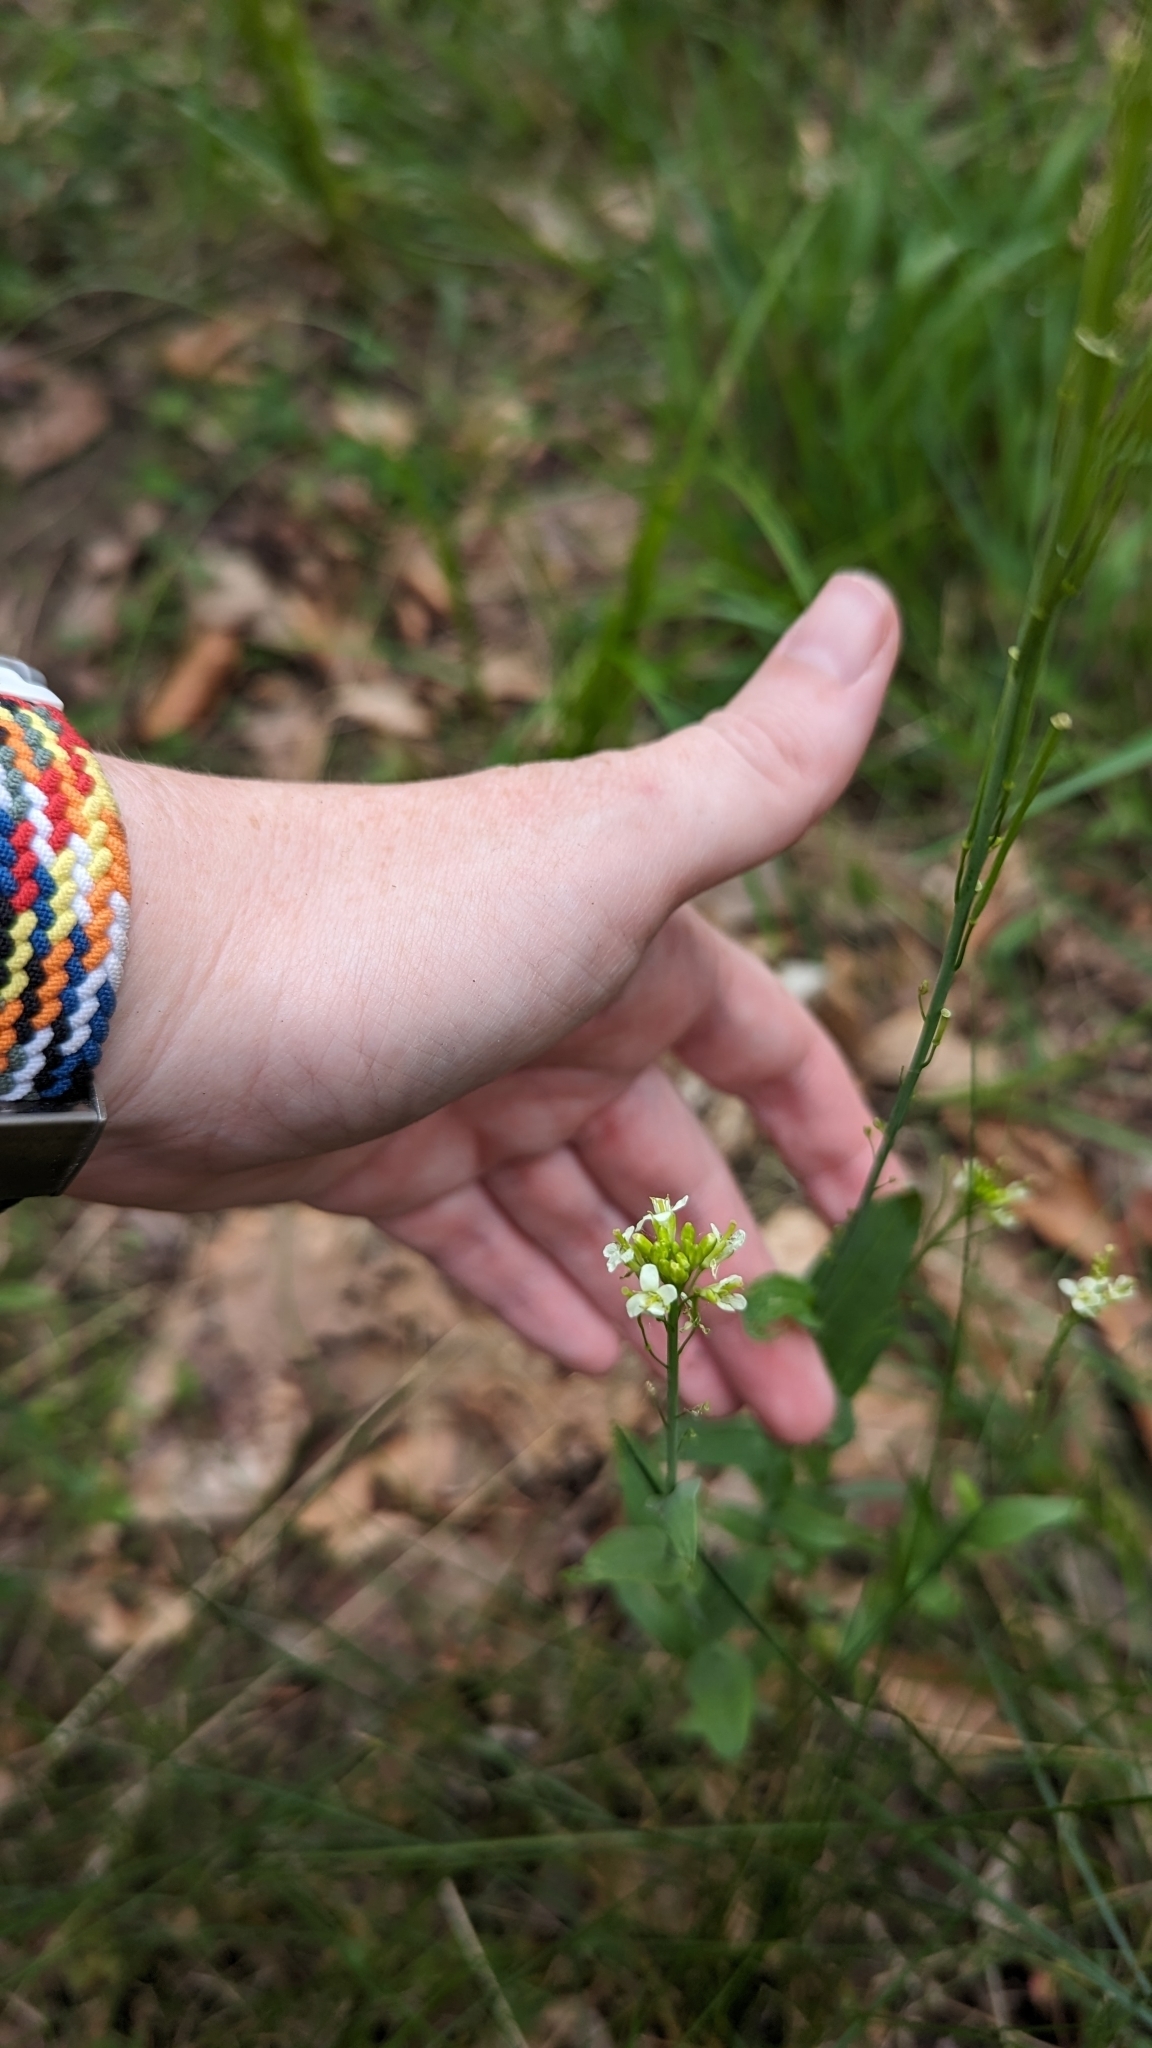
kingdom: Plantae
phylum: Tracheophyta
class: Magnoliopsida
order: Brassicales
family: Brassicaceae
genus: Turritis
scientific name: Turritis glabra
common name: Tower rockcress
